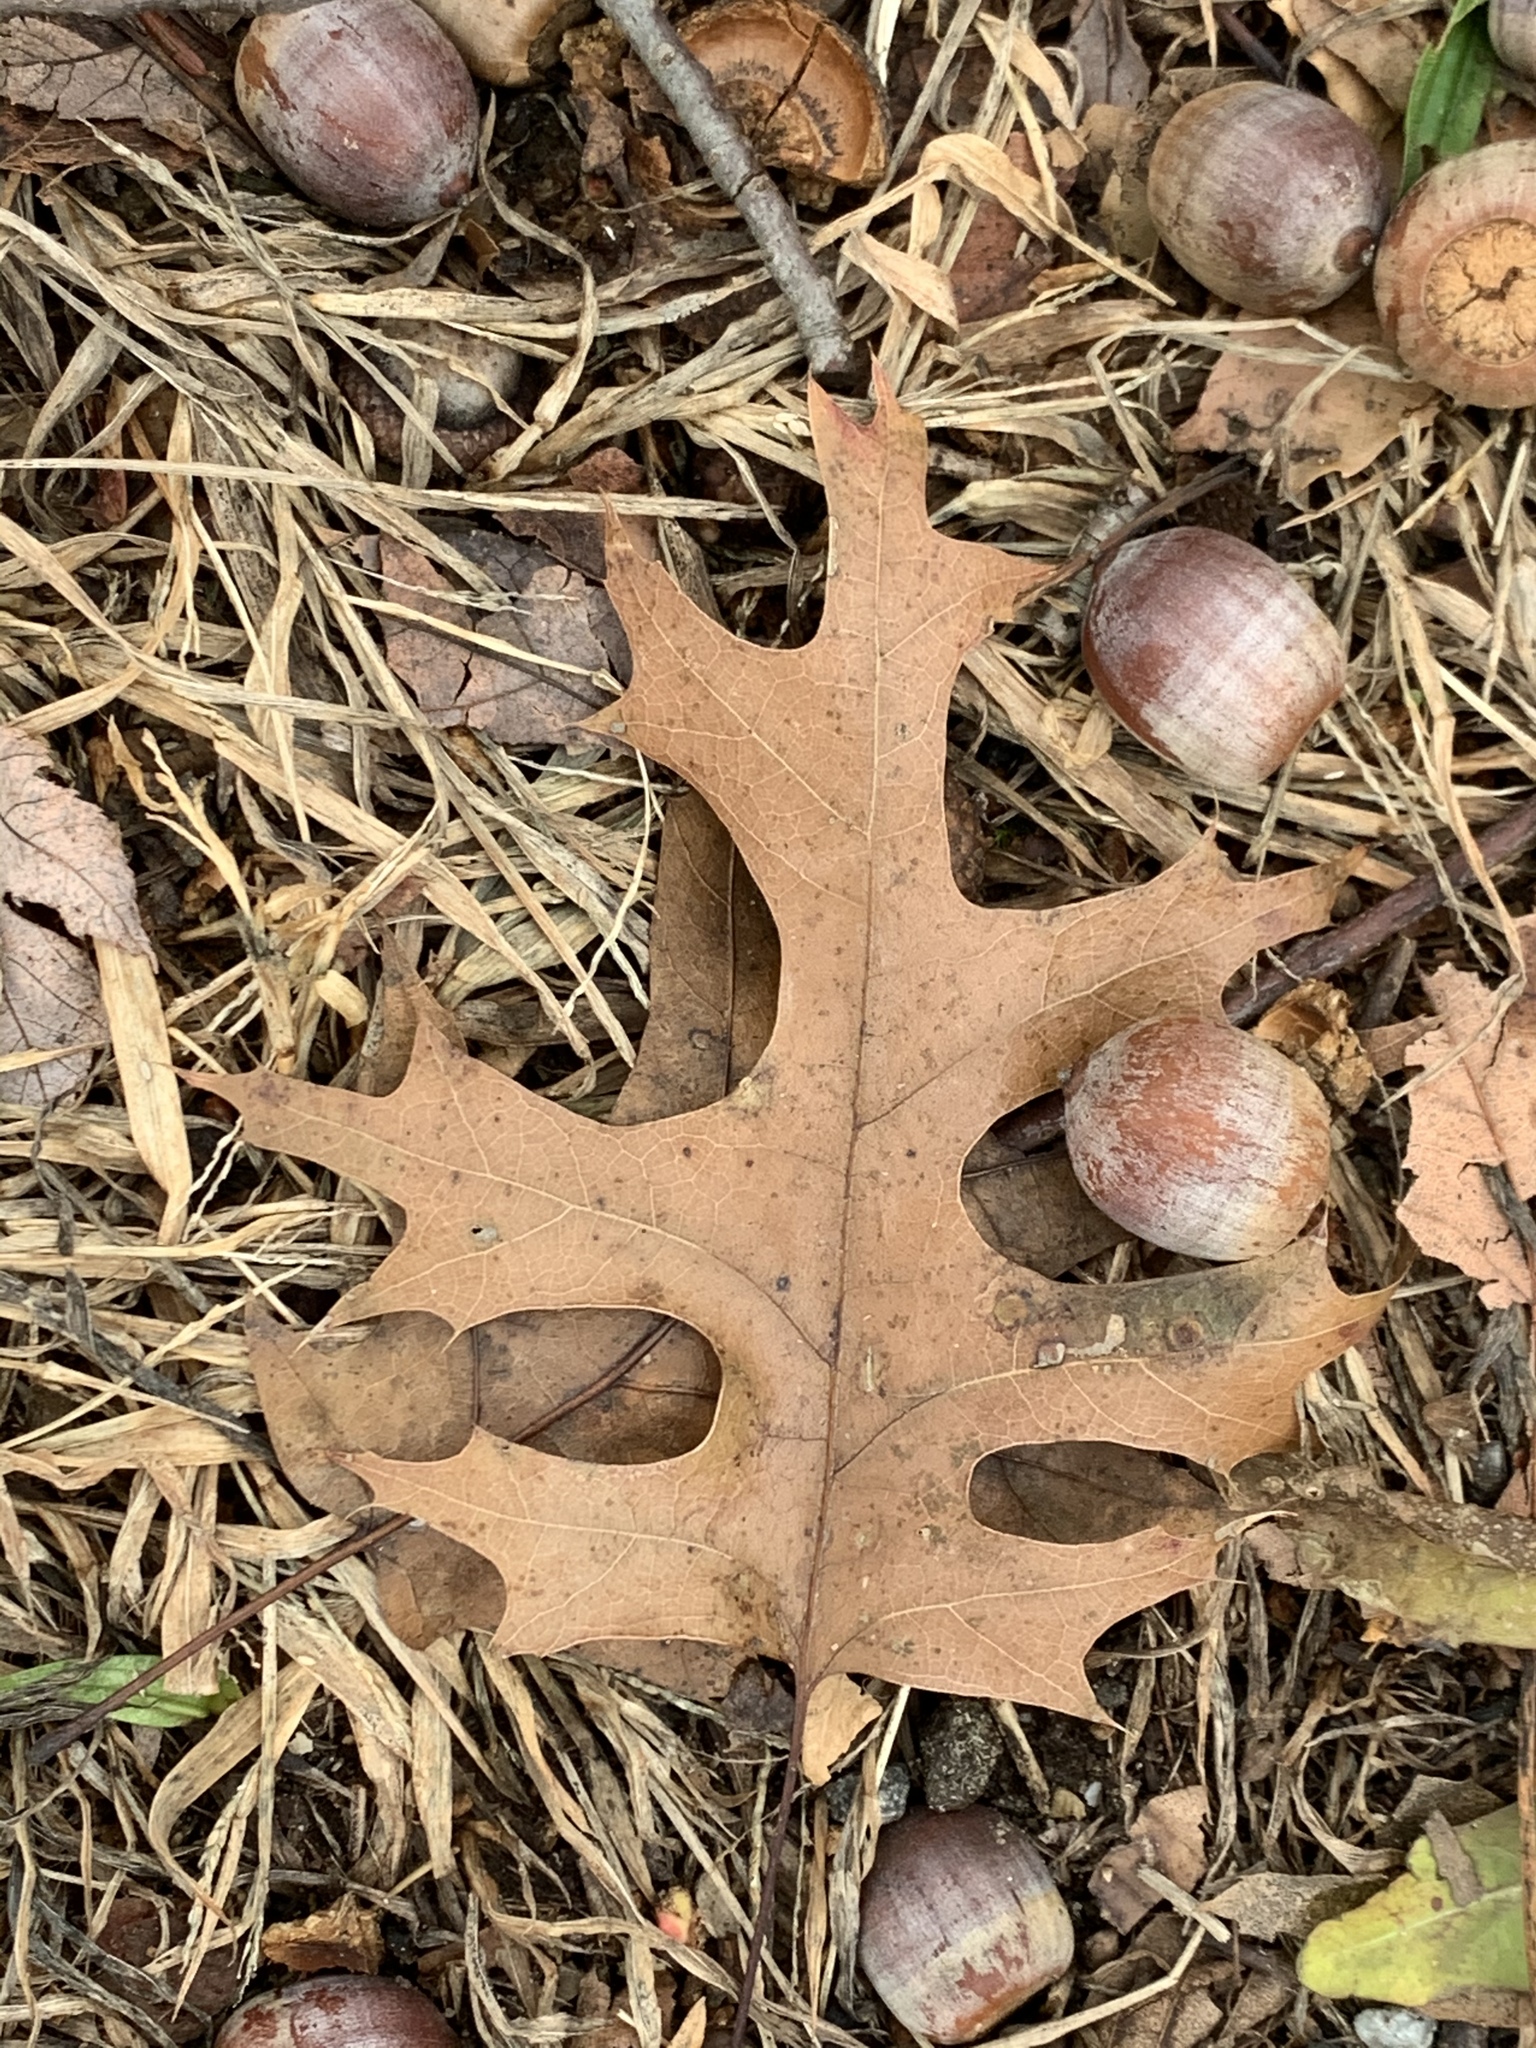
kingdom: Plantae
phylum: Tracheophyta
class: Magnoliopsida
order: Fagales
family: Fagaceae
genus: Quercus
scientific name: Quercus rubra
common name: Red oak
